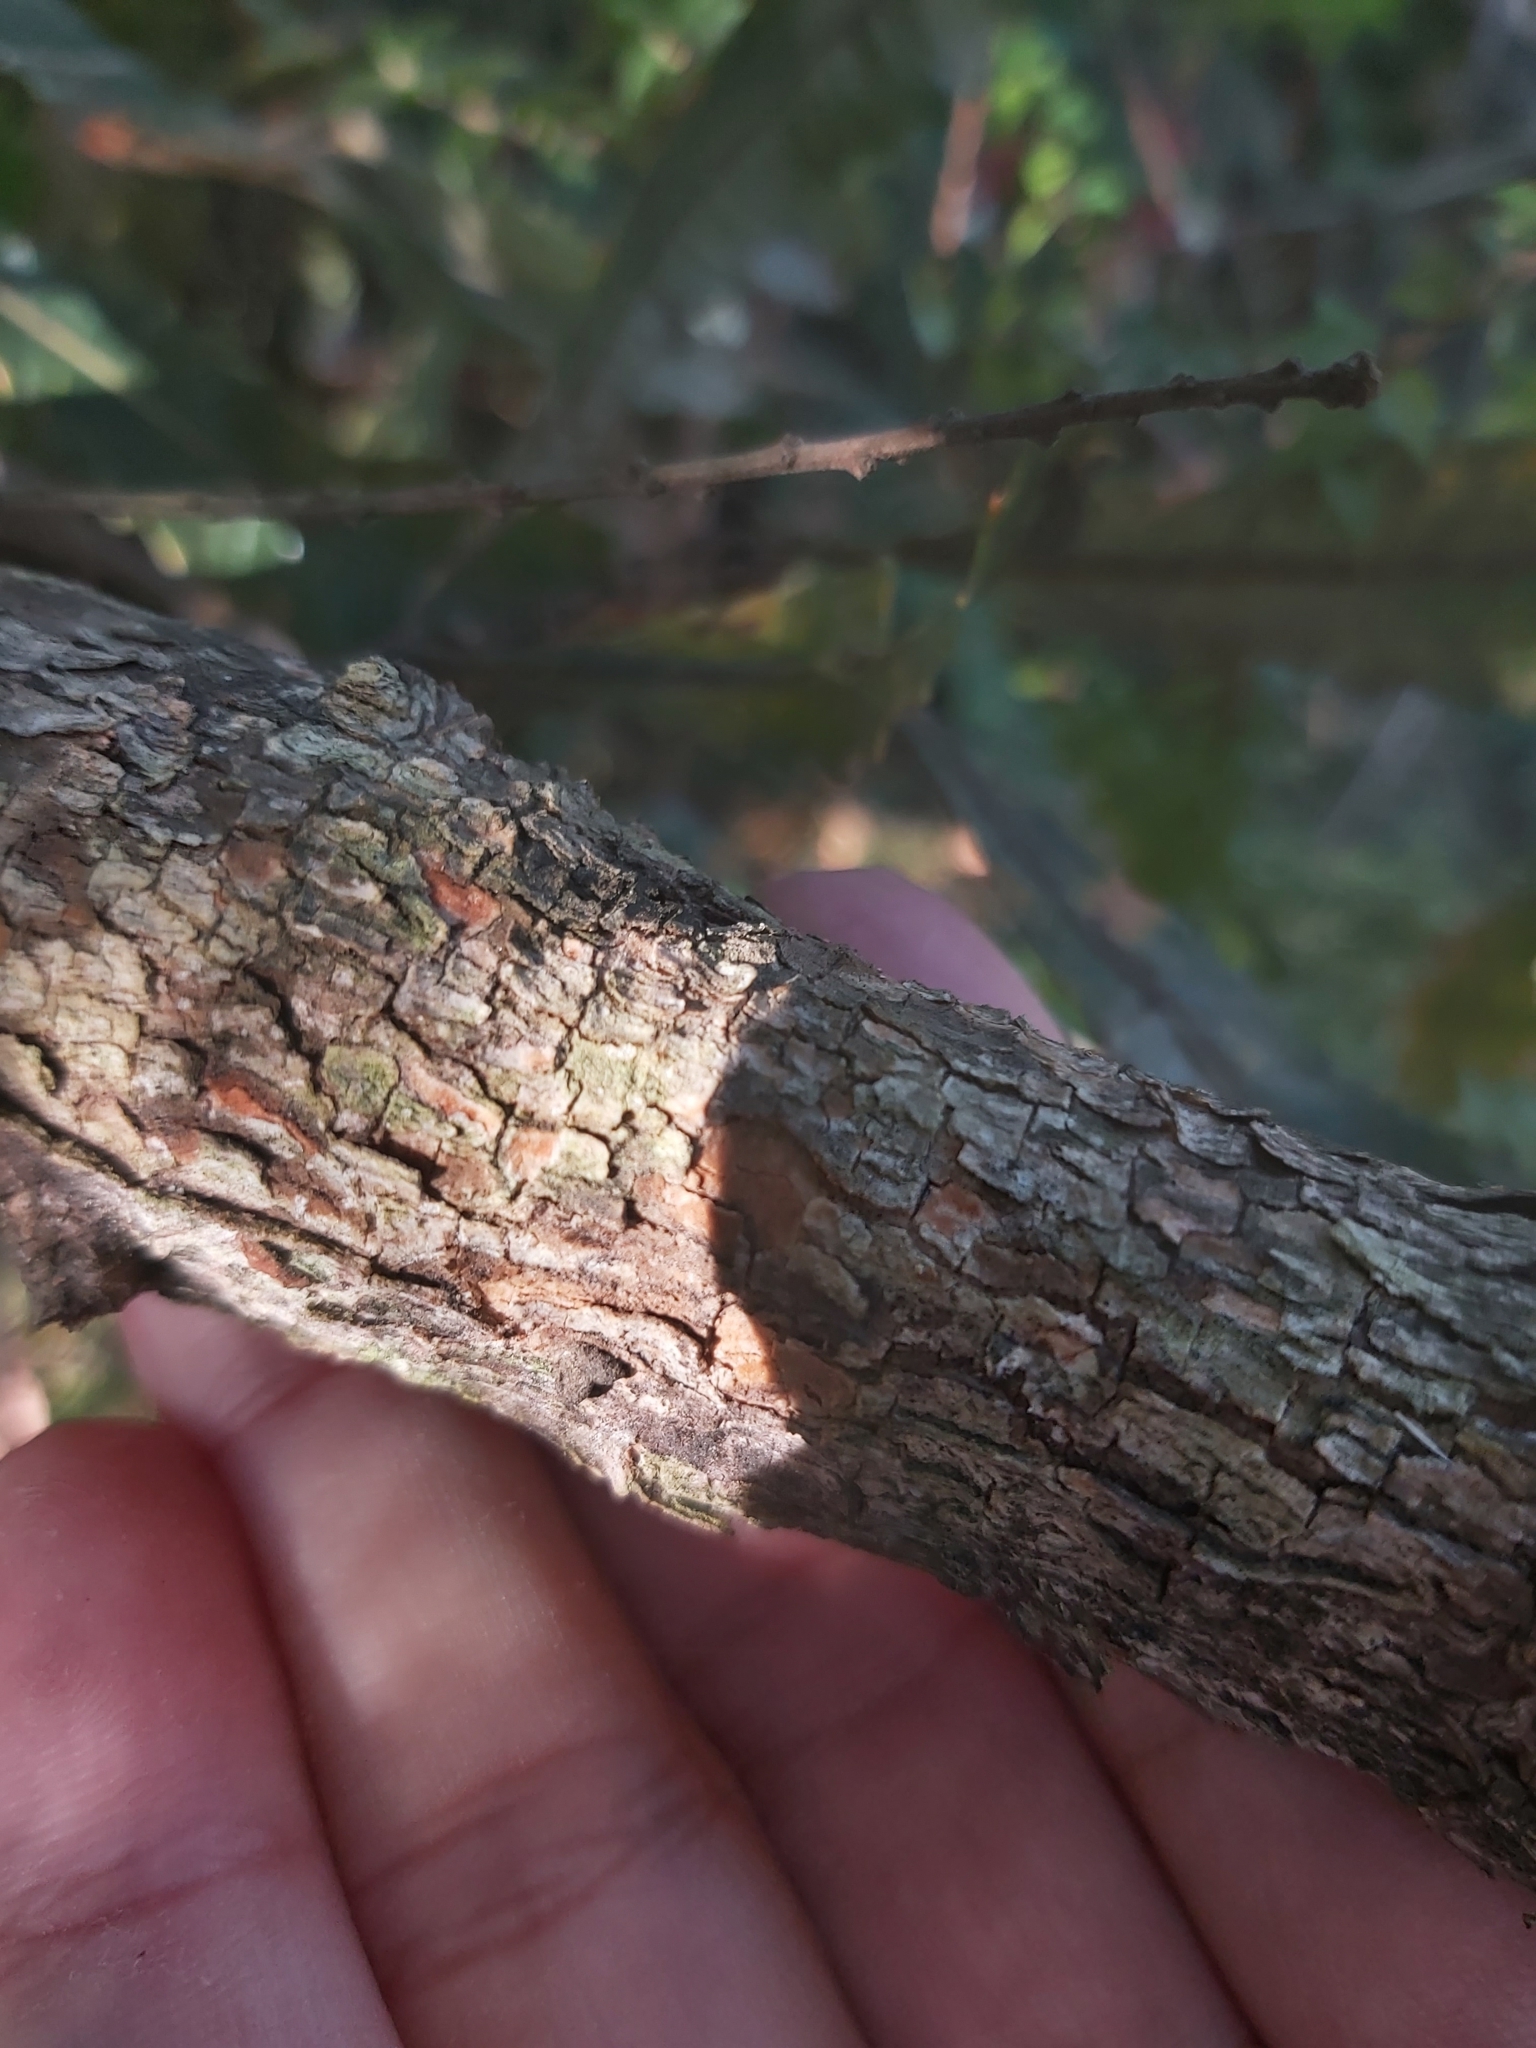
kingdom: Plantae
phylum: Tracheophyta
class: Magnoliopsida
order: Proteales
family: Proteaceae
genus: Banksia
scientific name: Banksia serrata
